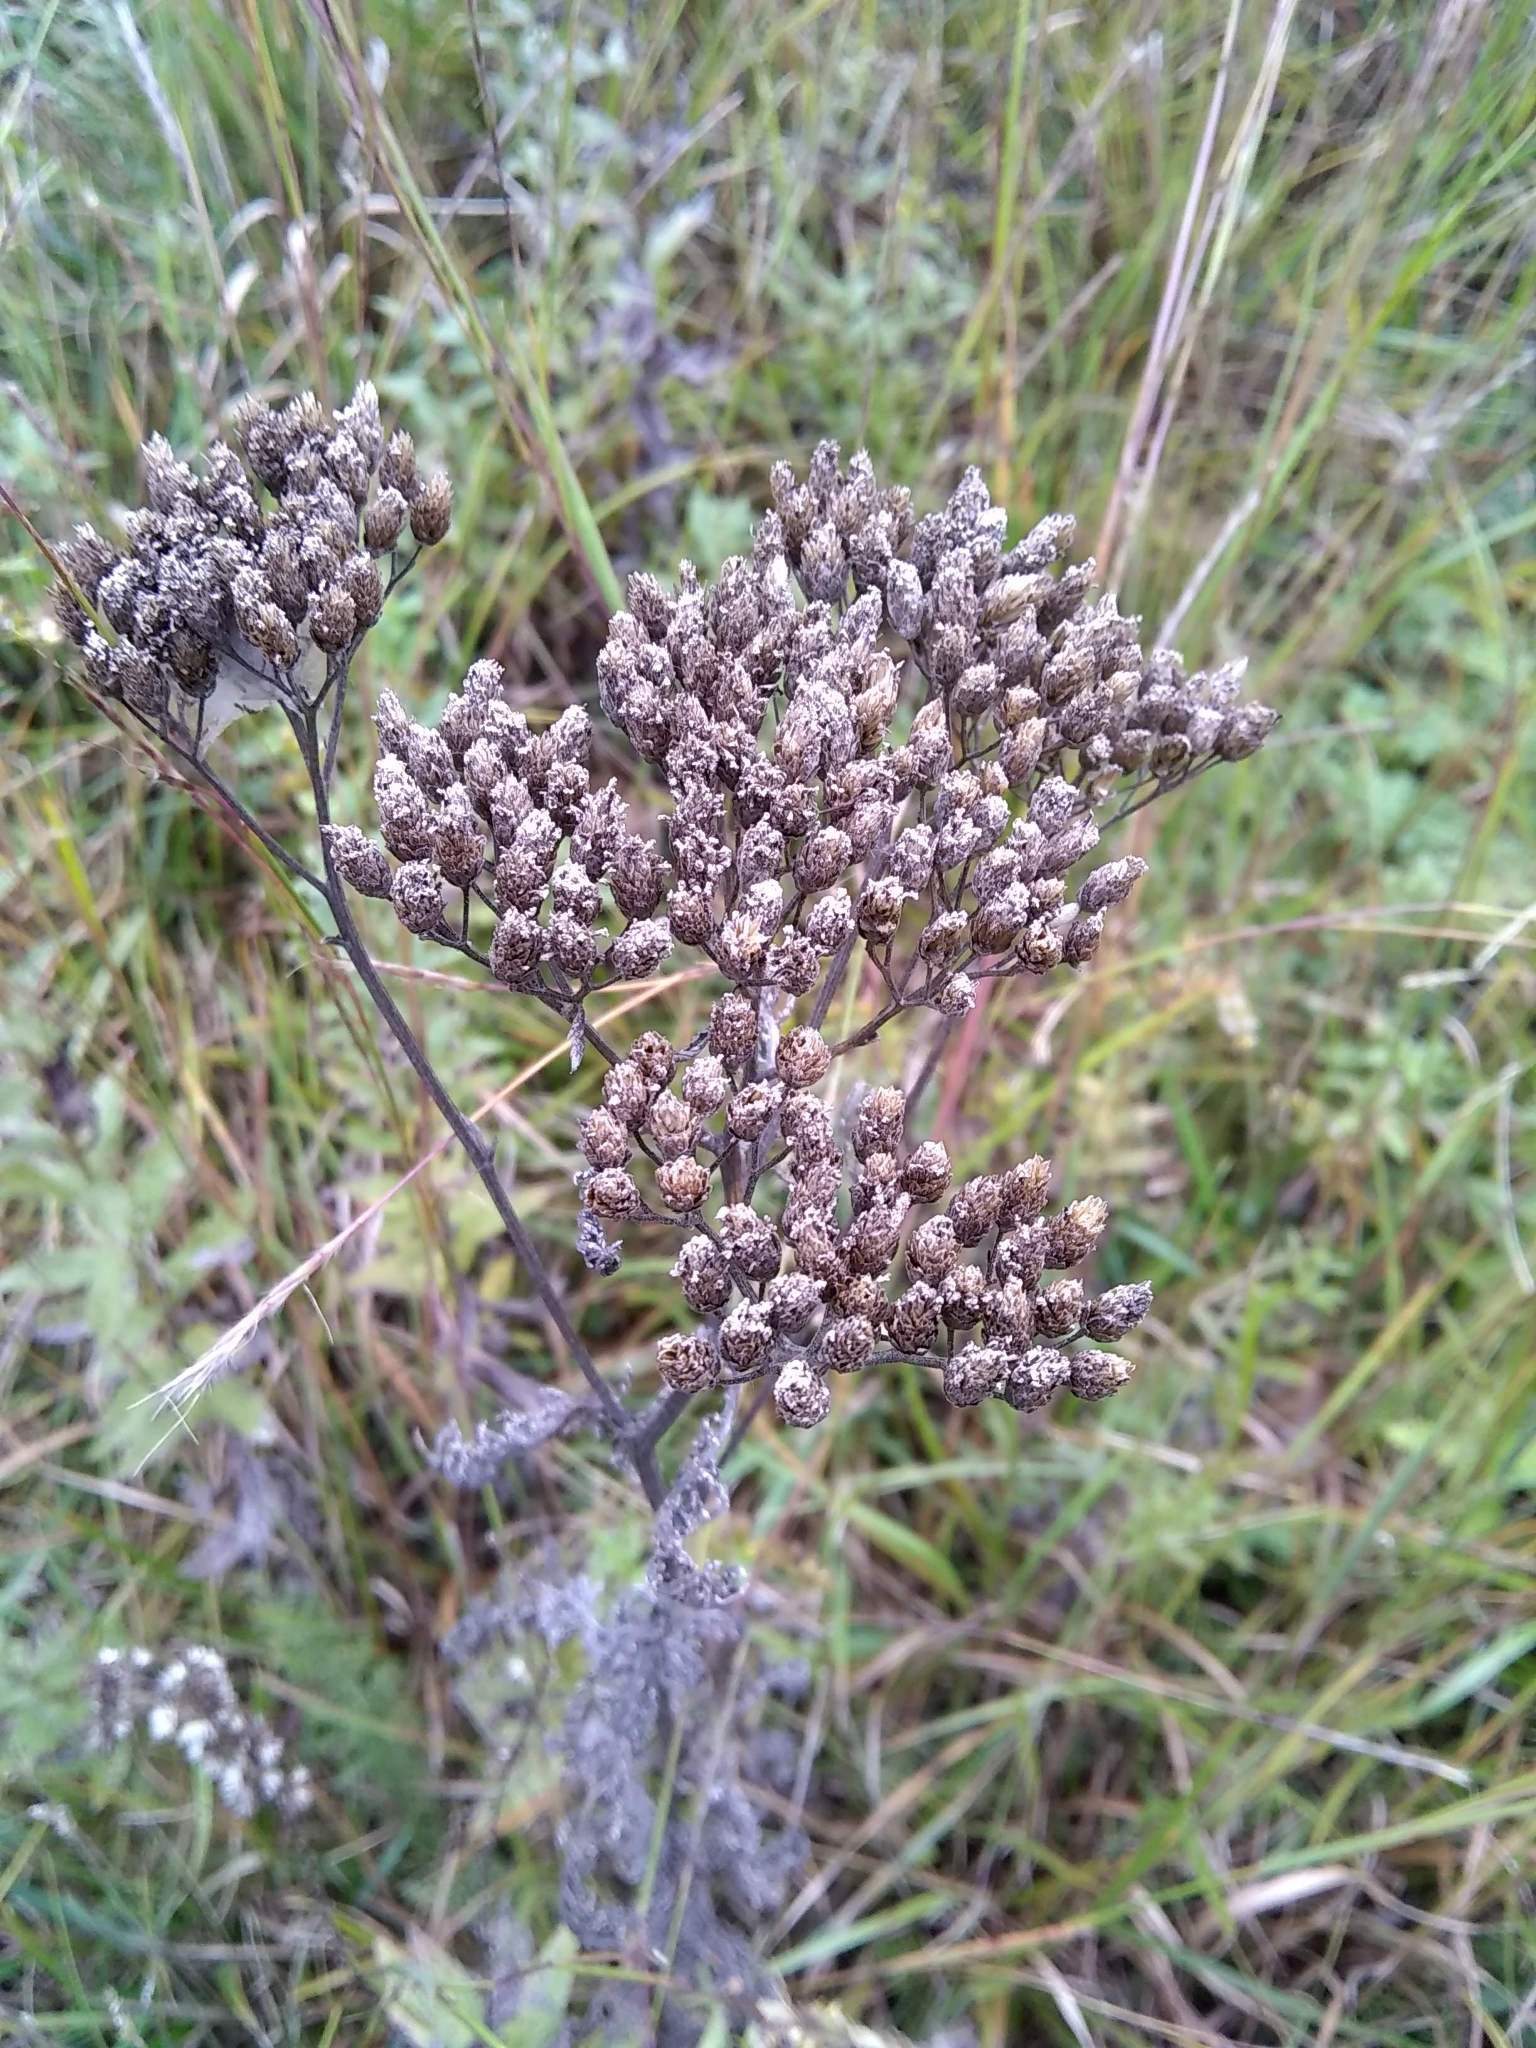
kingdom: Plantae
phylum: Tracheophyta
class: Magnoliopsida
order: Asterales
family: Asteraceae
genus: Achillea
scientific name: Achillea millefolium
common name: Yarrow
